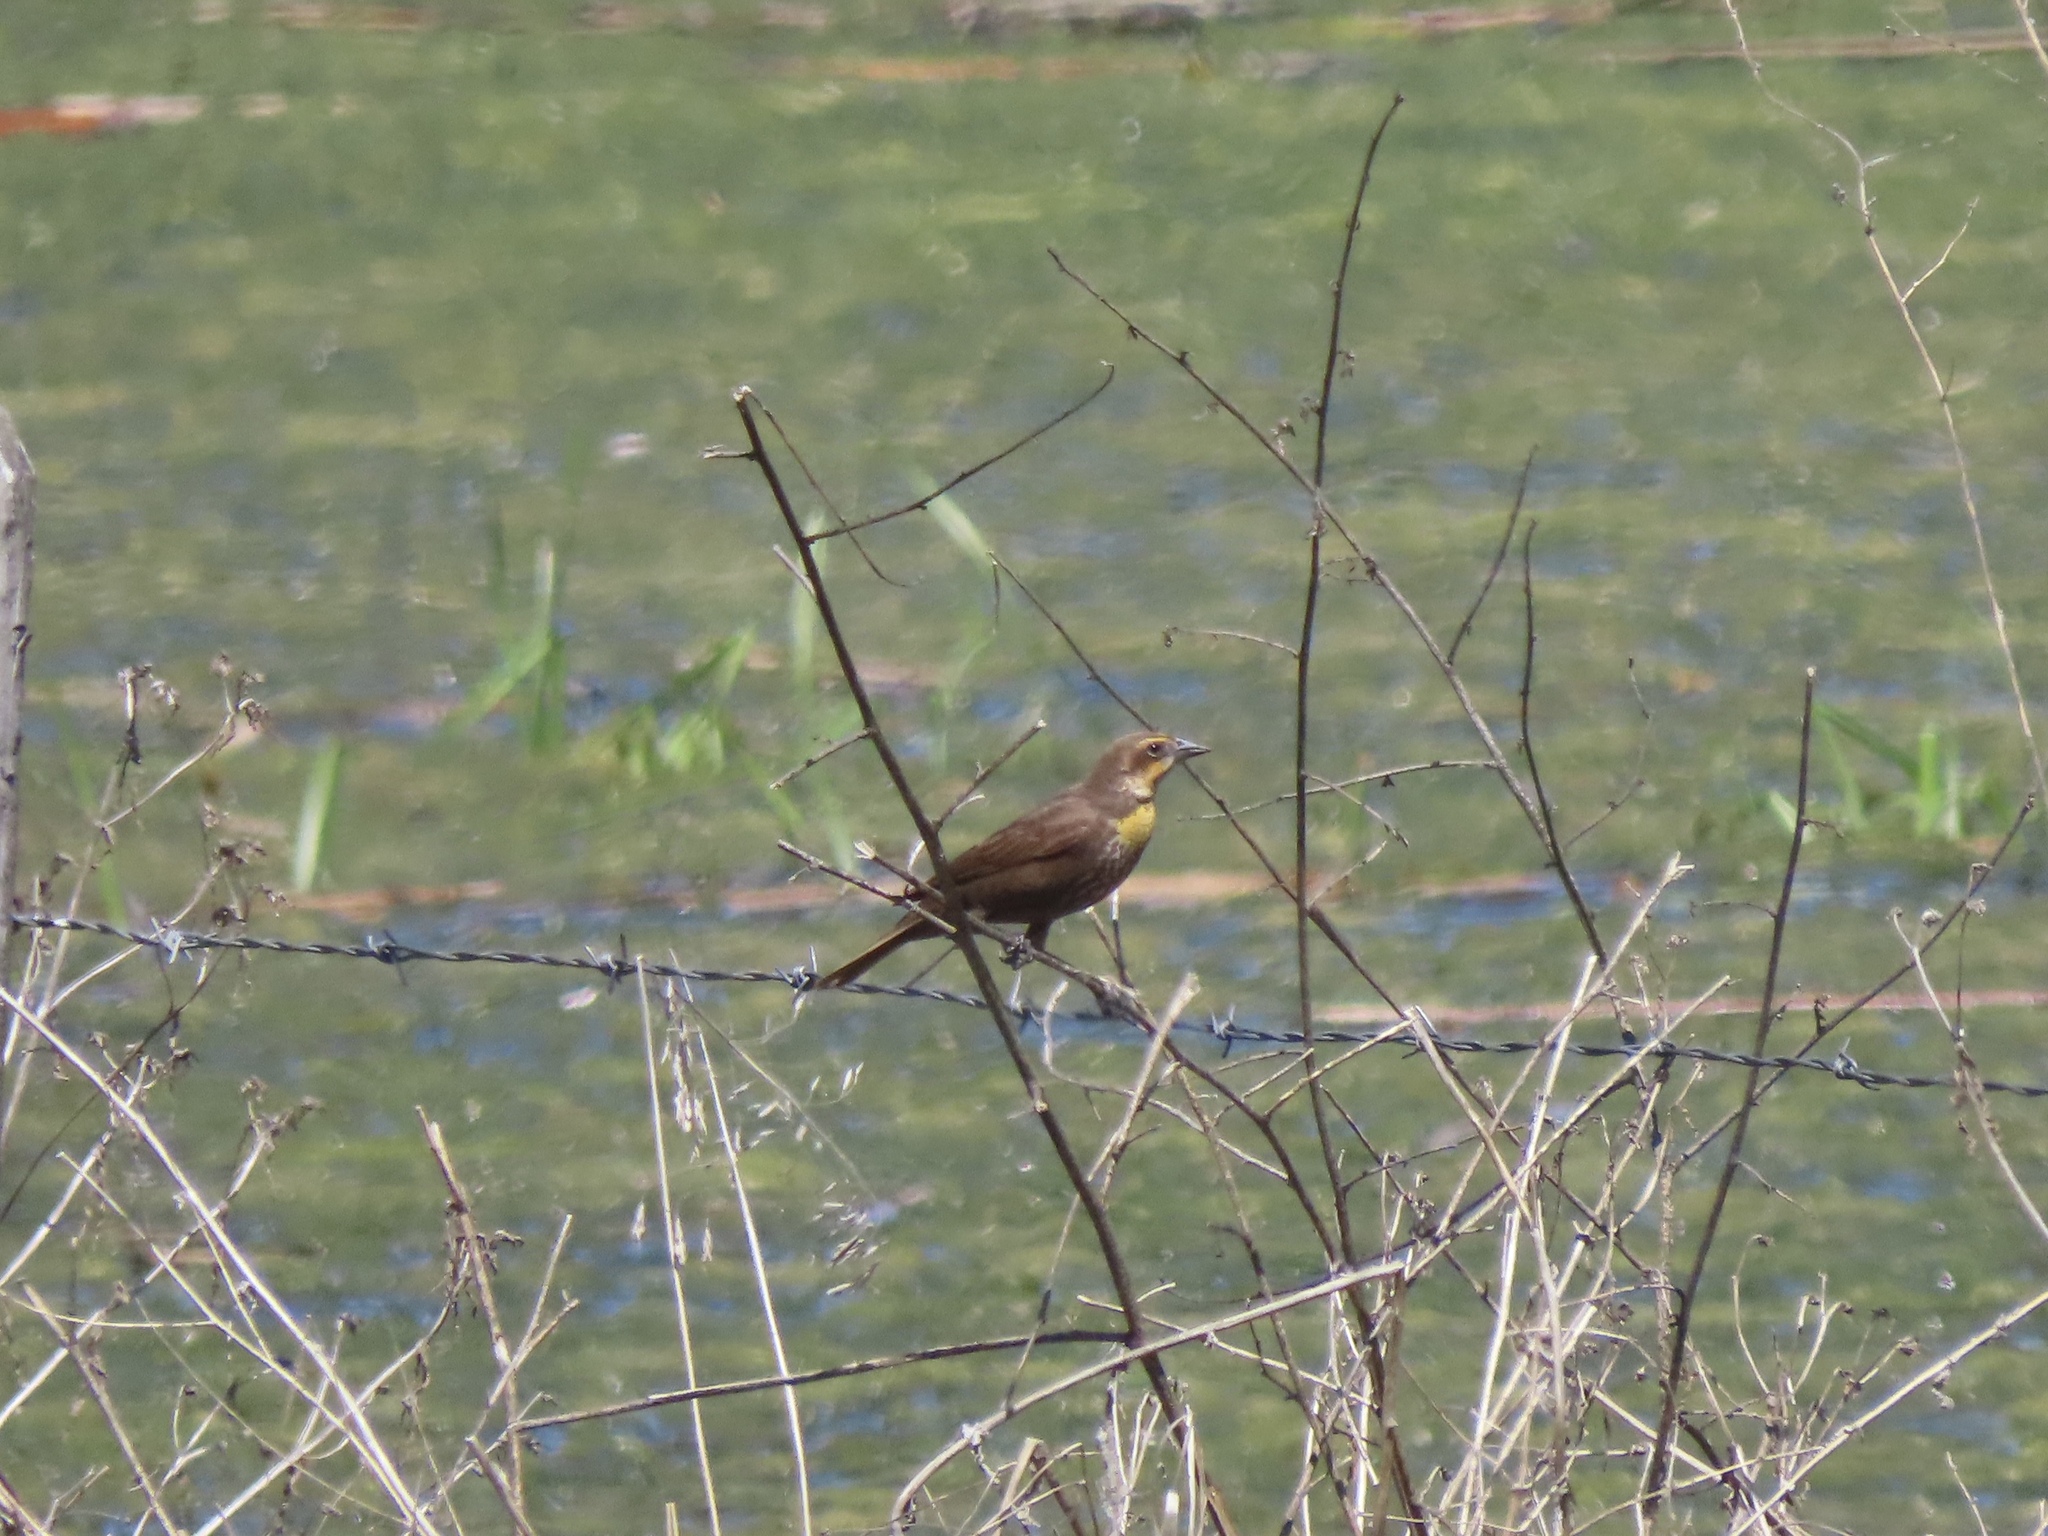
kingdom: Animalia
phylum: Chordata
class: Aves
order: Passeriformes
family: Icteridae
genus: Xanthocephalus
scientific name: Xanthocephalus xanthocephalus
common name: Yellow-headed blackbird
